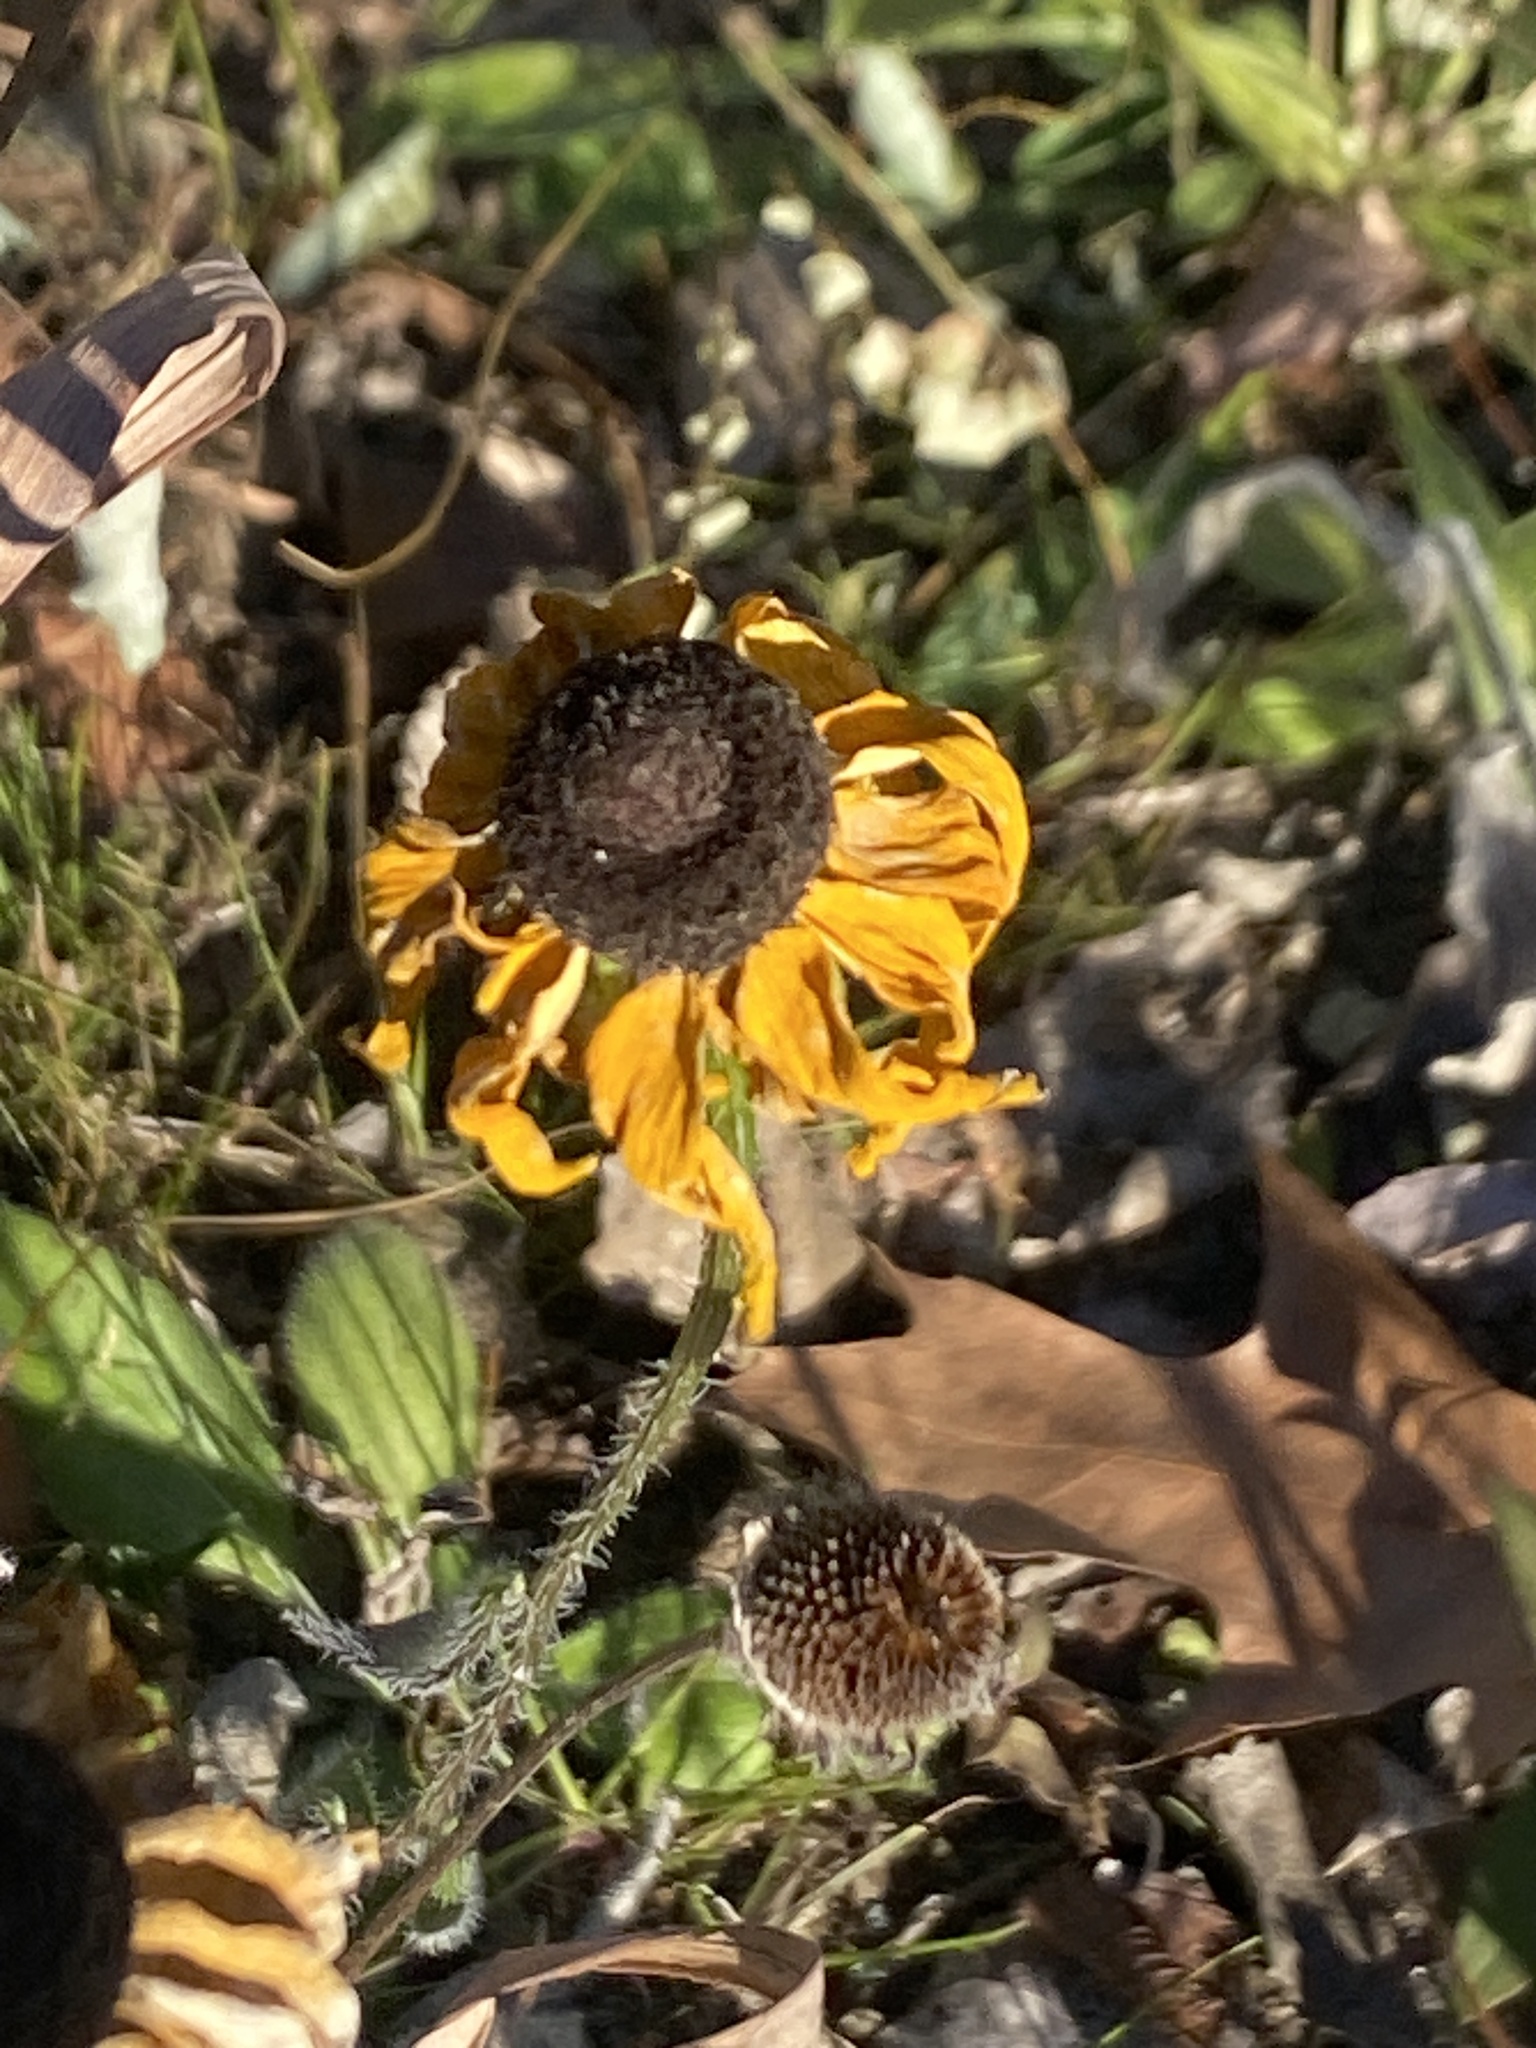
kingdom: Plantae
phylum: Tracheophyta
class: Magnoliopsida
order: Asterales
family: Asteraceae
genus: Rudbeckia
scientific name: Rudbeckia hirta
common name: Black-eyed-susan
